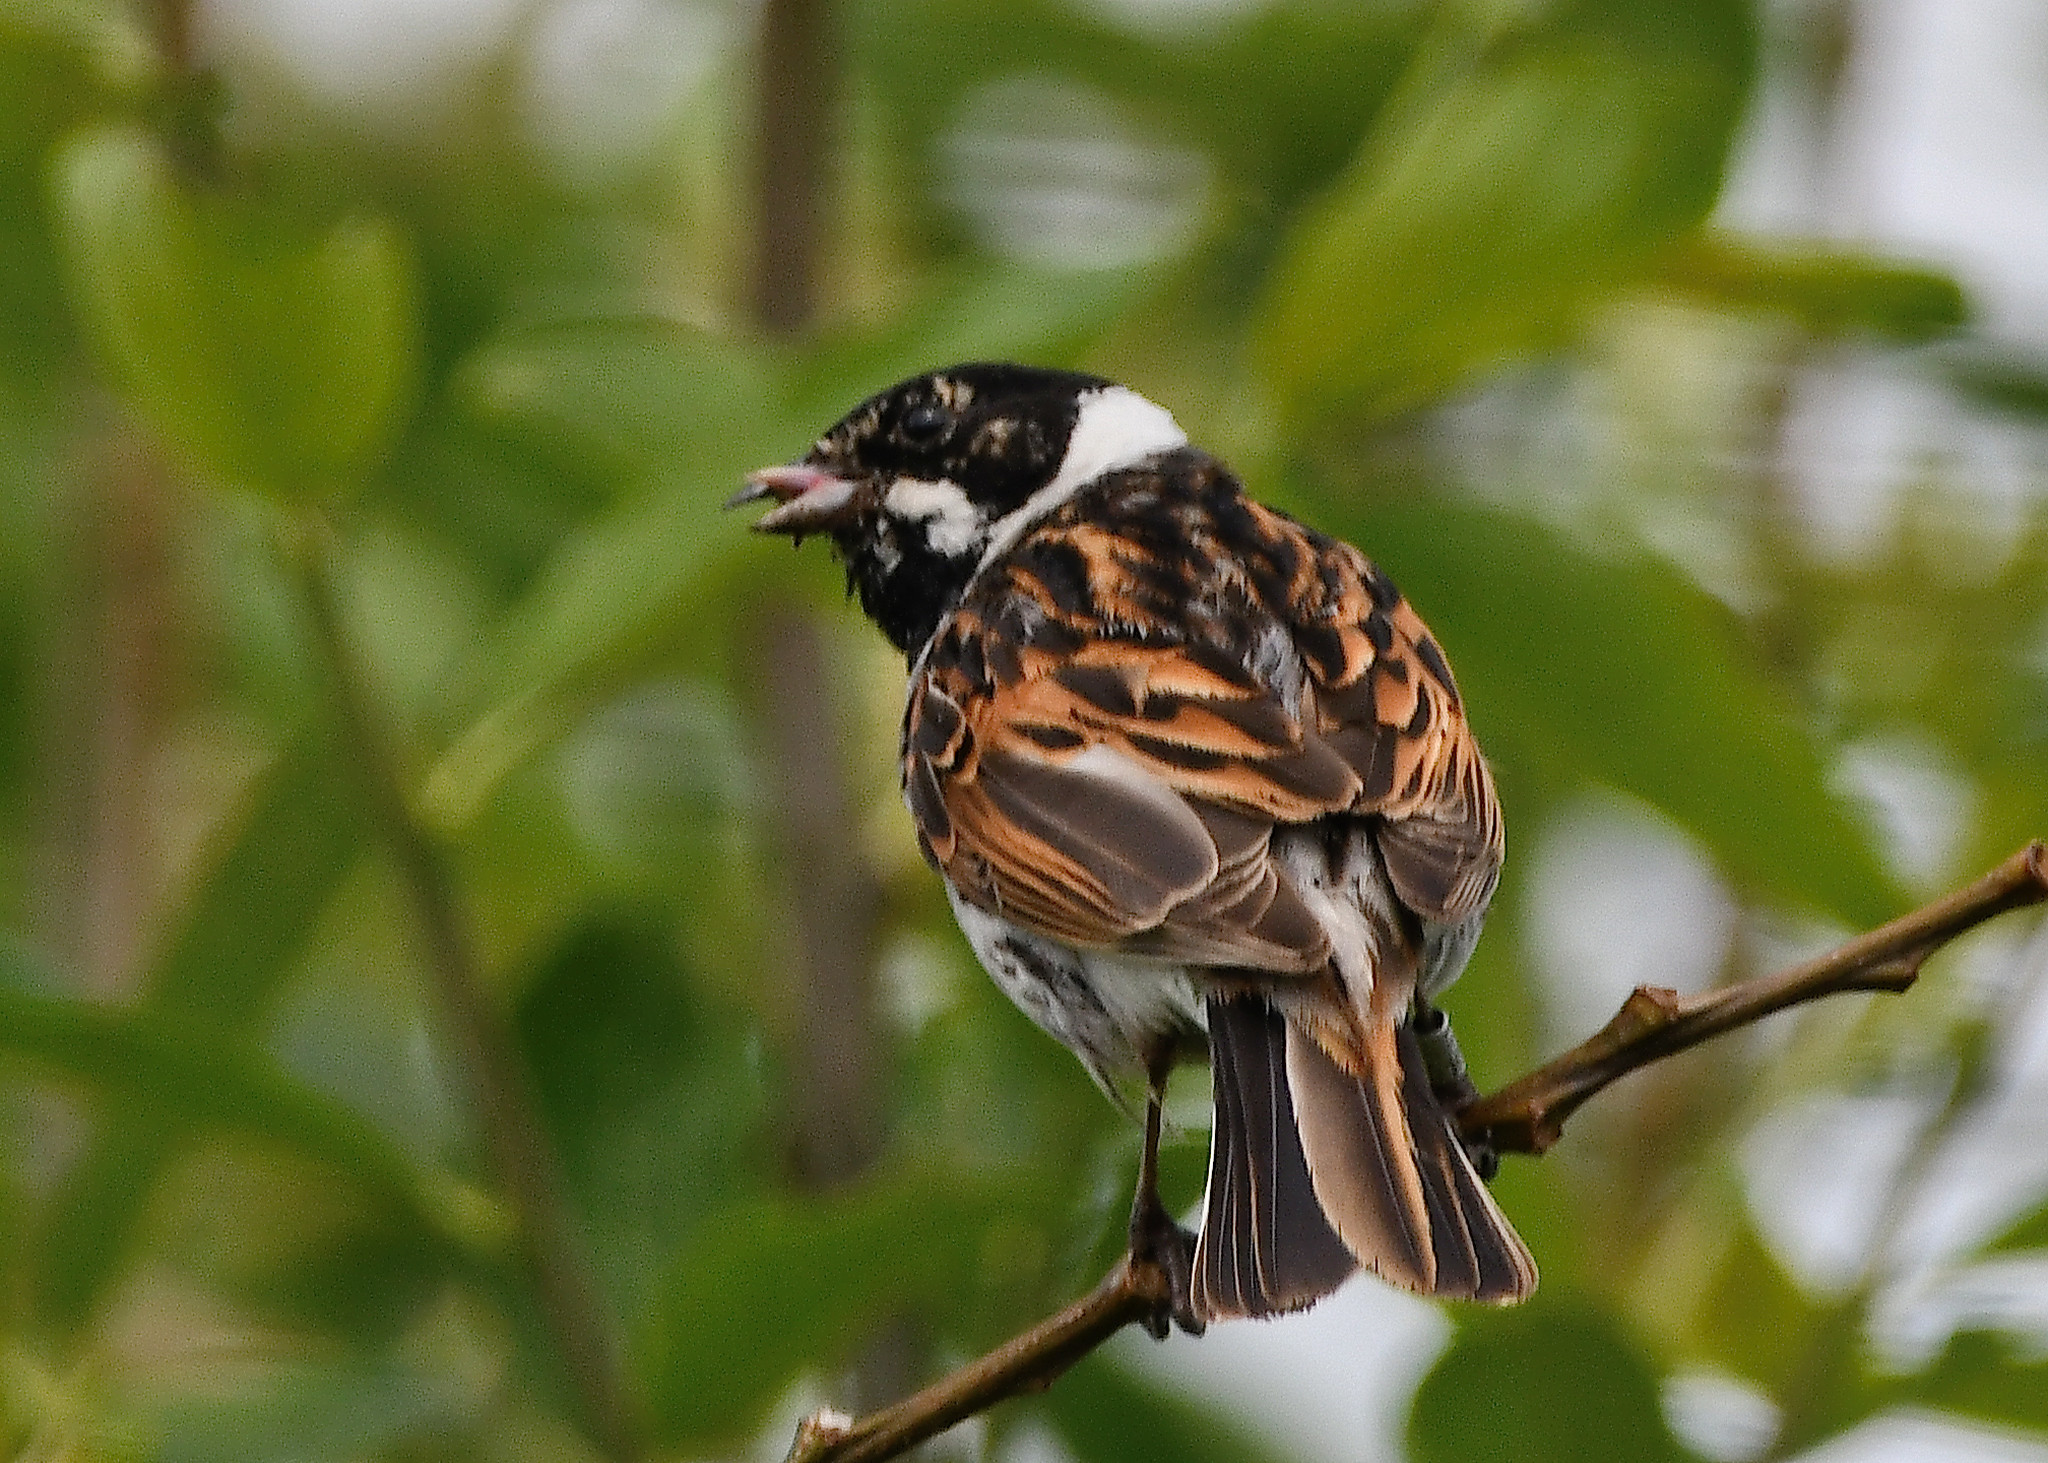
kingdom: Animalia
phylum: Chordata
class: Aves
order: Passeriformes
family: Emberizidae
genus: Emberiza
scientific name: Emberiza schoeniclus
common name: Reed bunting
